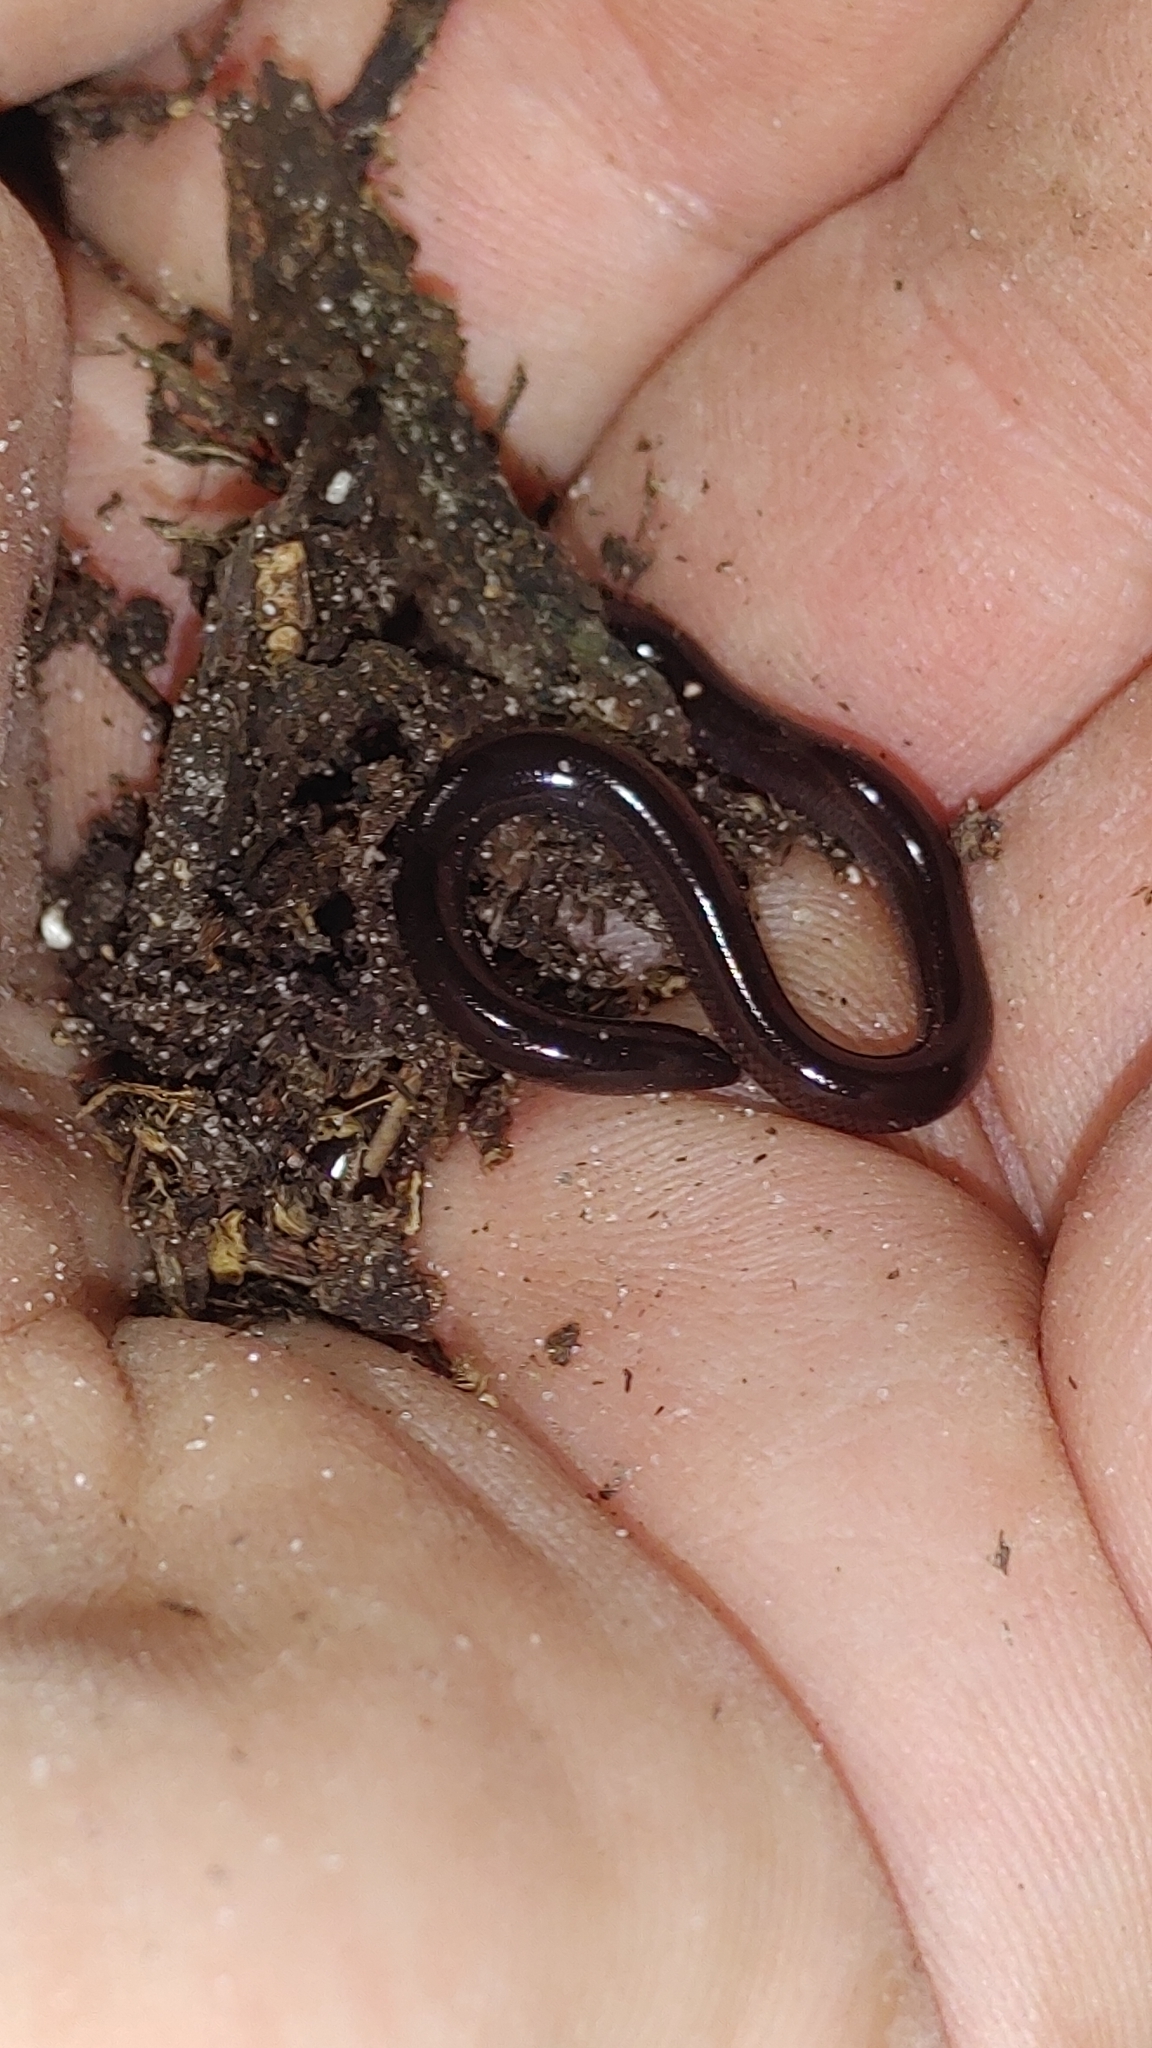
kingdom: Animalia
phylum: Chordata
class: Squamata
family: Typhlopidae
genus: Indotyphlops
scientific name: Indotyphlops braminus
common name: Brahminy blindsnake
